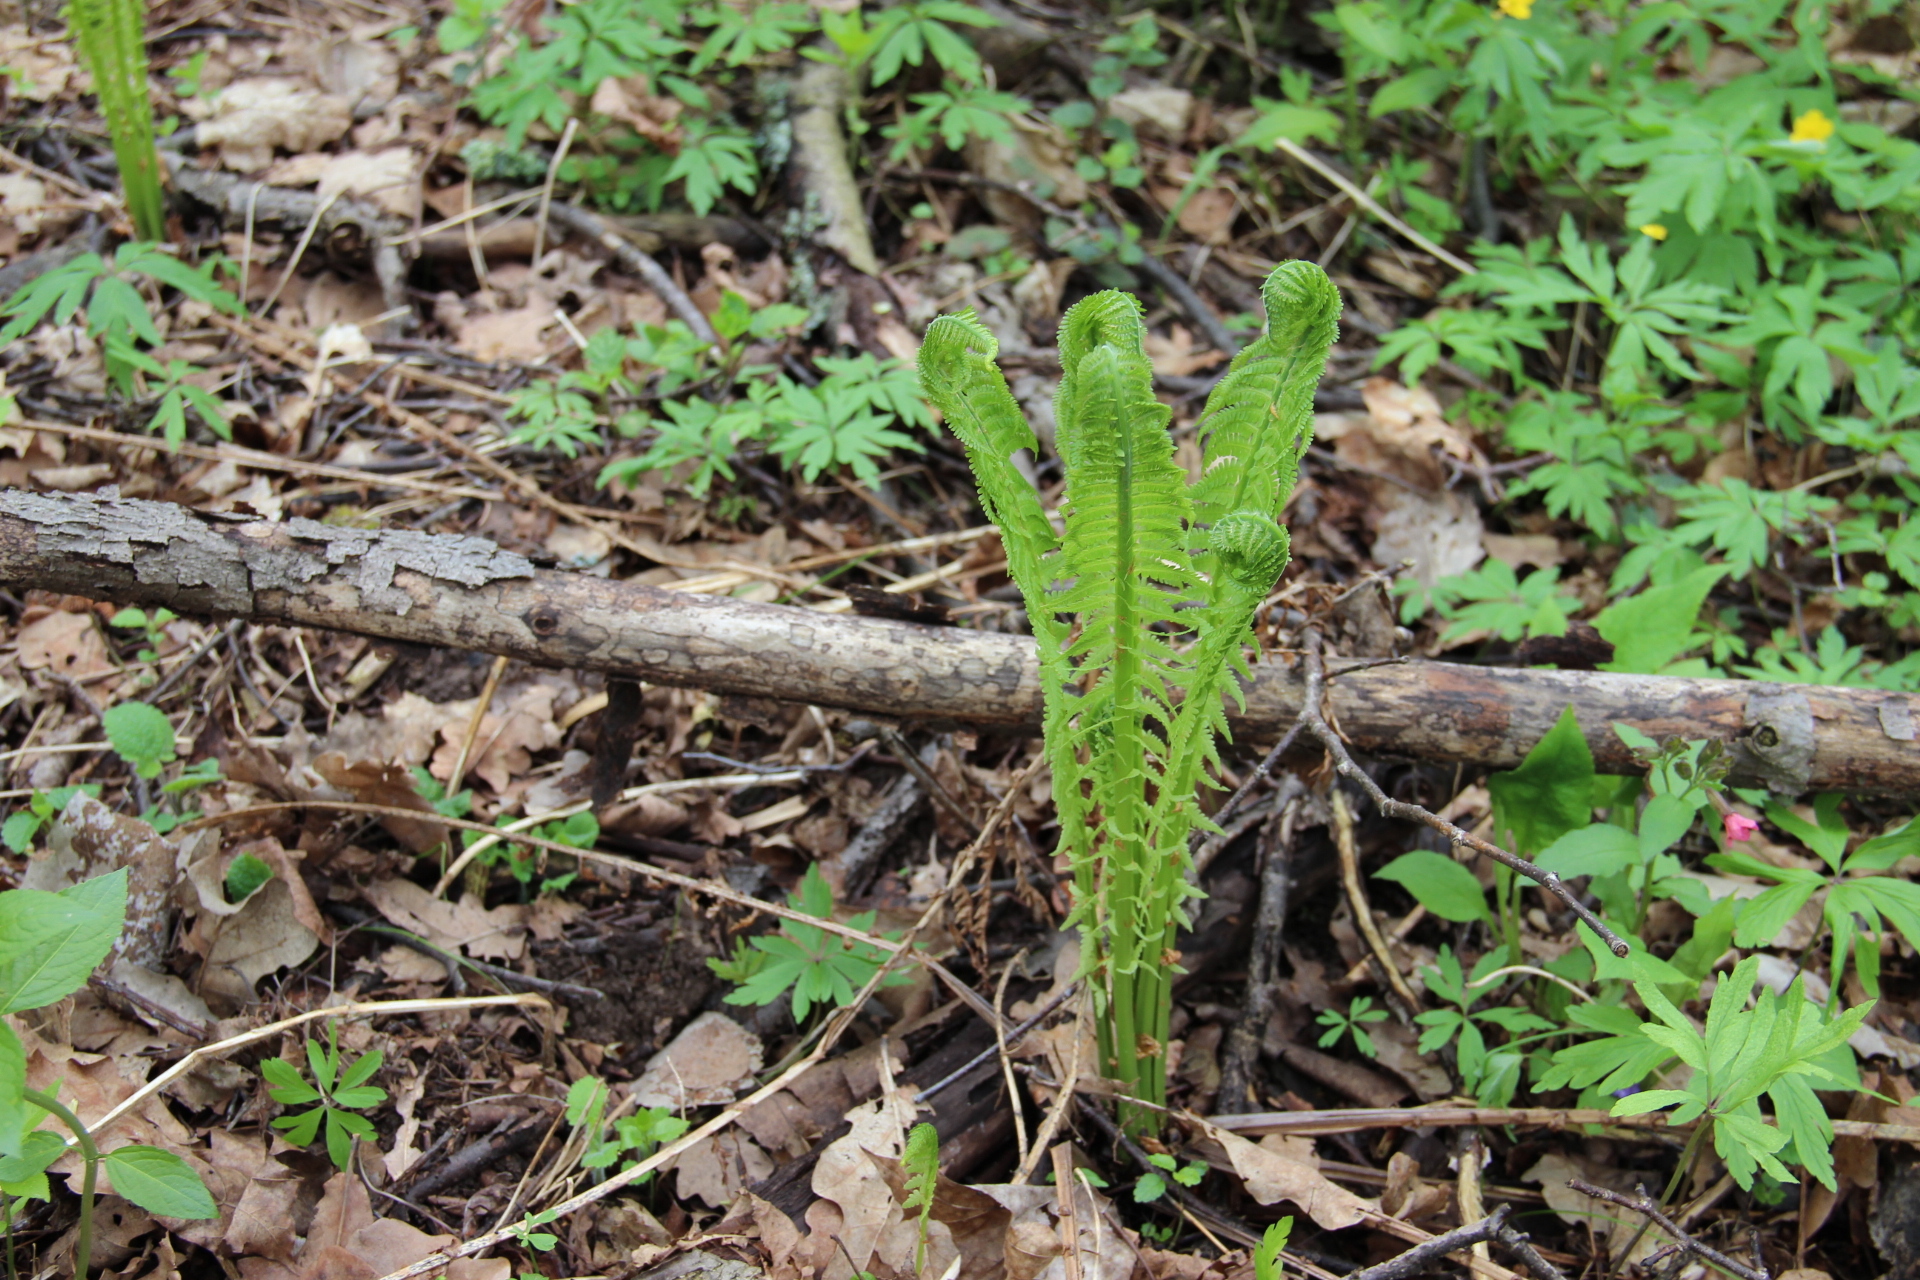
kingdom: Plantae
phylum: Tracheophyta
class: Polypodiopsida
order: Polypodiales
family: Onocleaceae
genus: Matteuccia
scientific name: Matteuccia struthiopteris
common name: Ostrich fern
